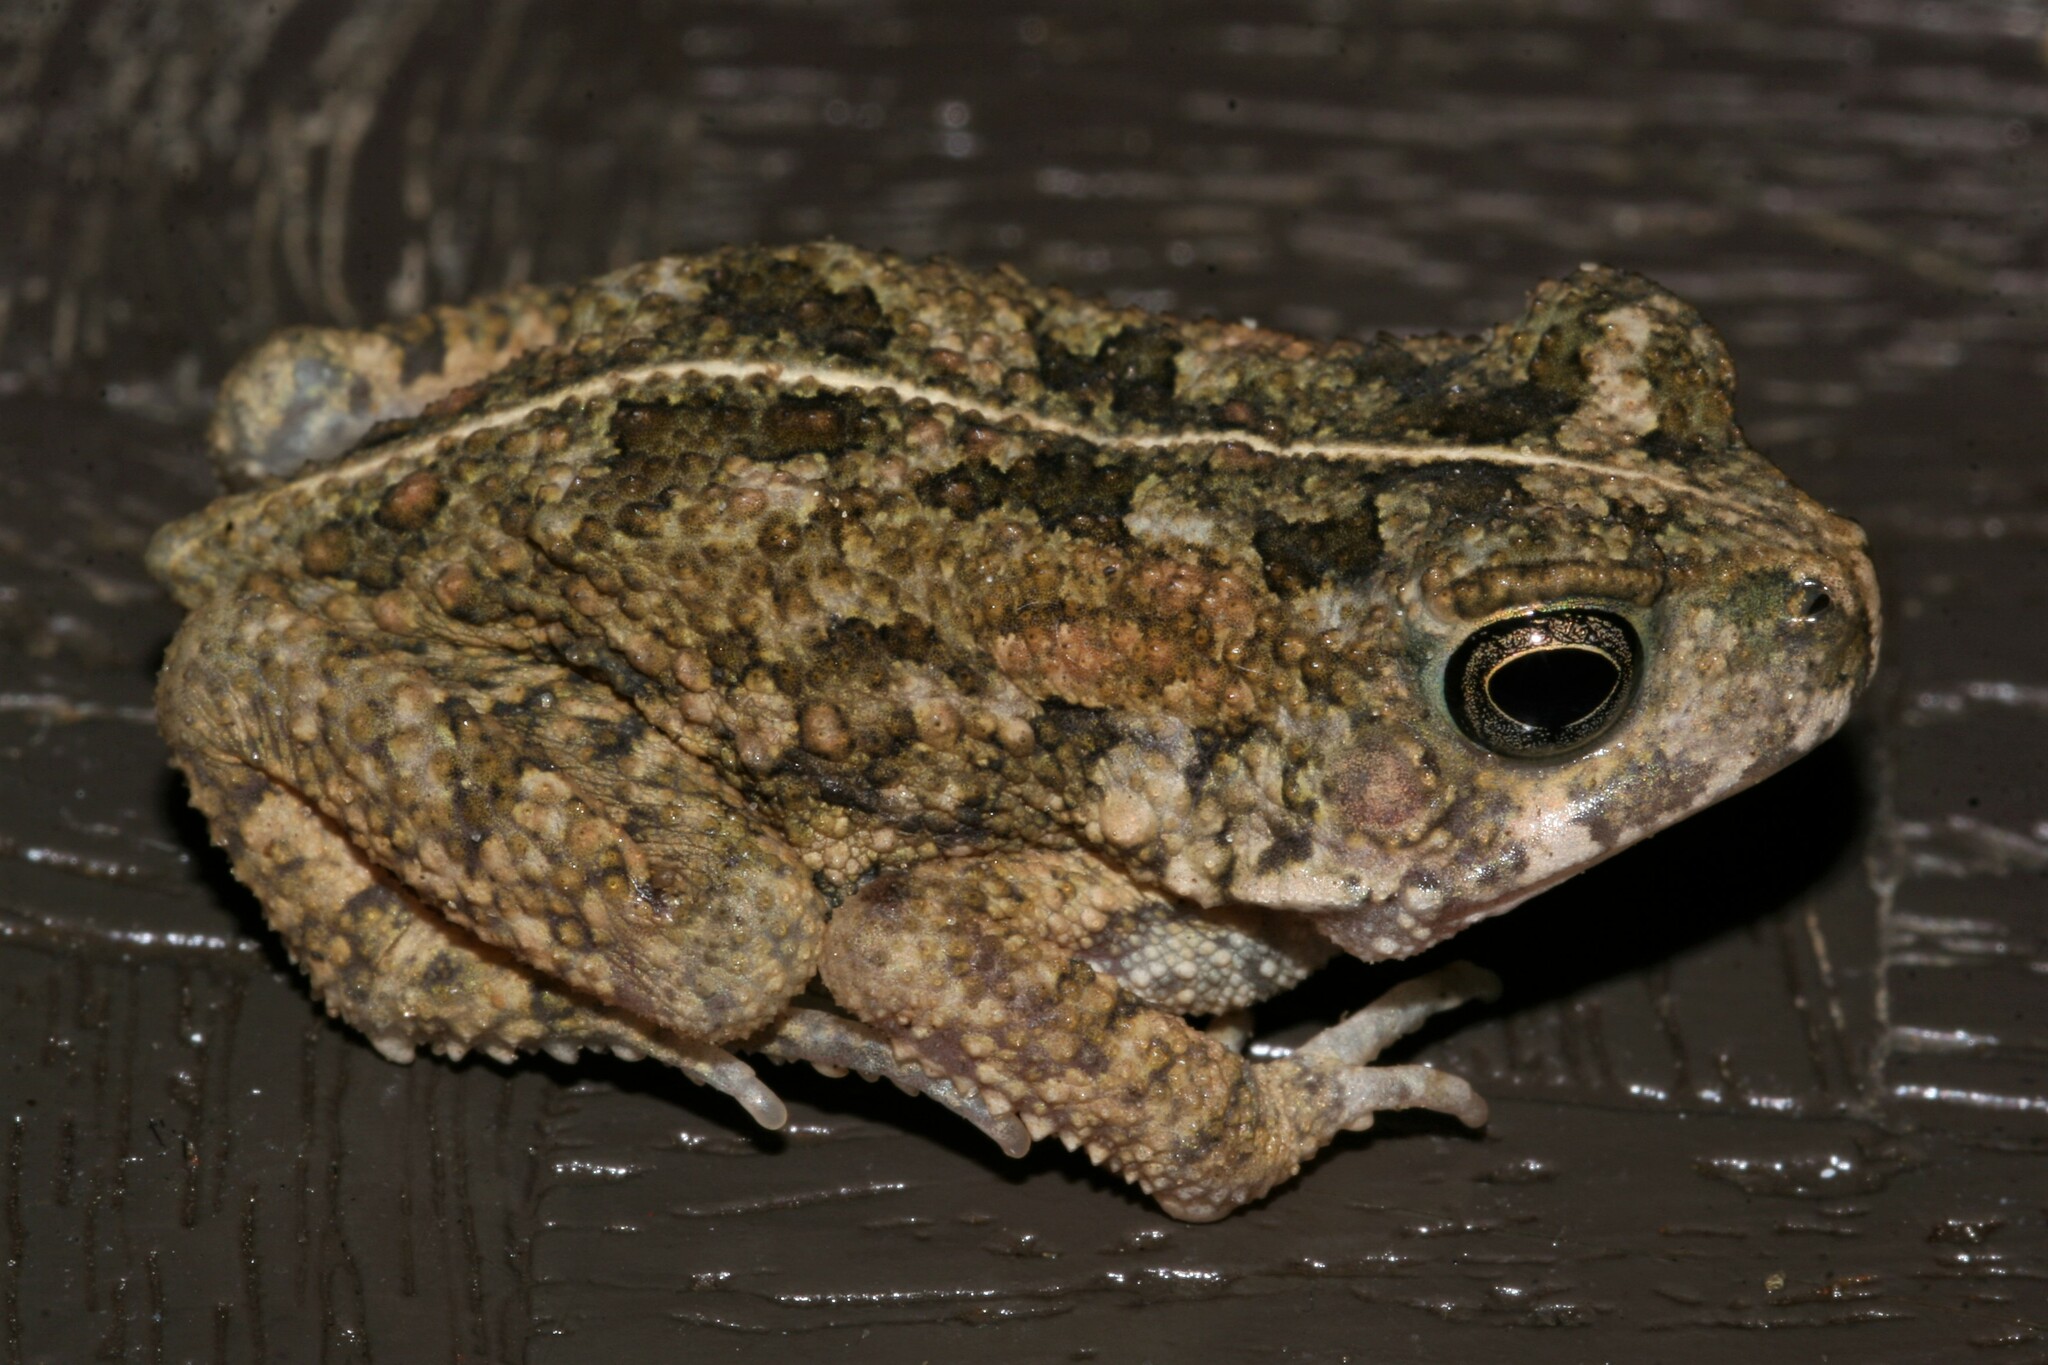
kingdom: Animalia
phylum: Chordata
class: Amphibia
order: Anura
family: Bufonidae
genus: Sclerophrys
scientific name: Sclerophrys pusilla
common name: Merten's striped toad
